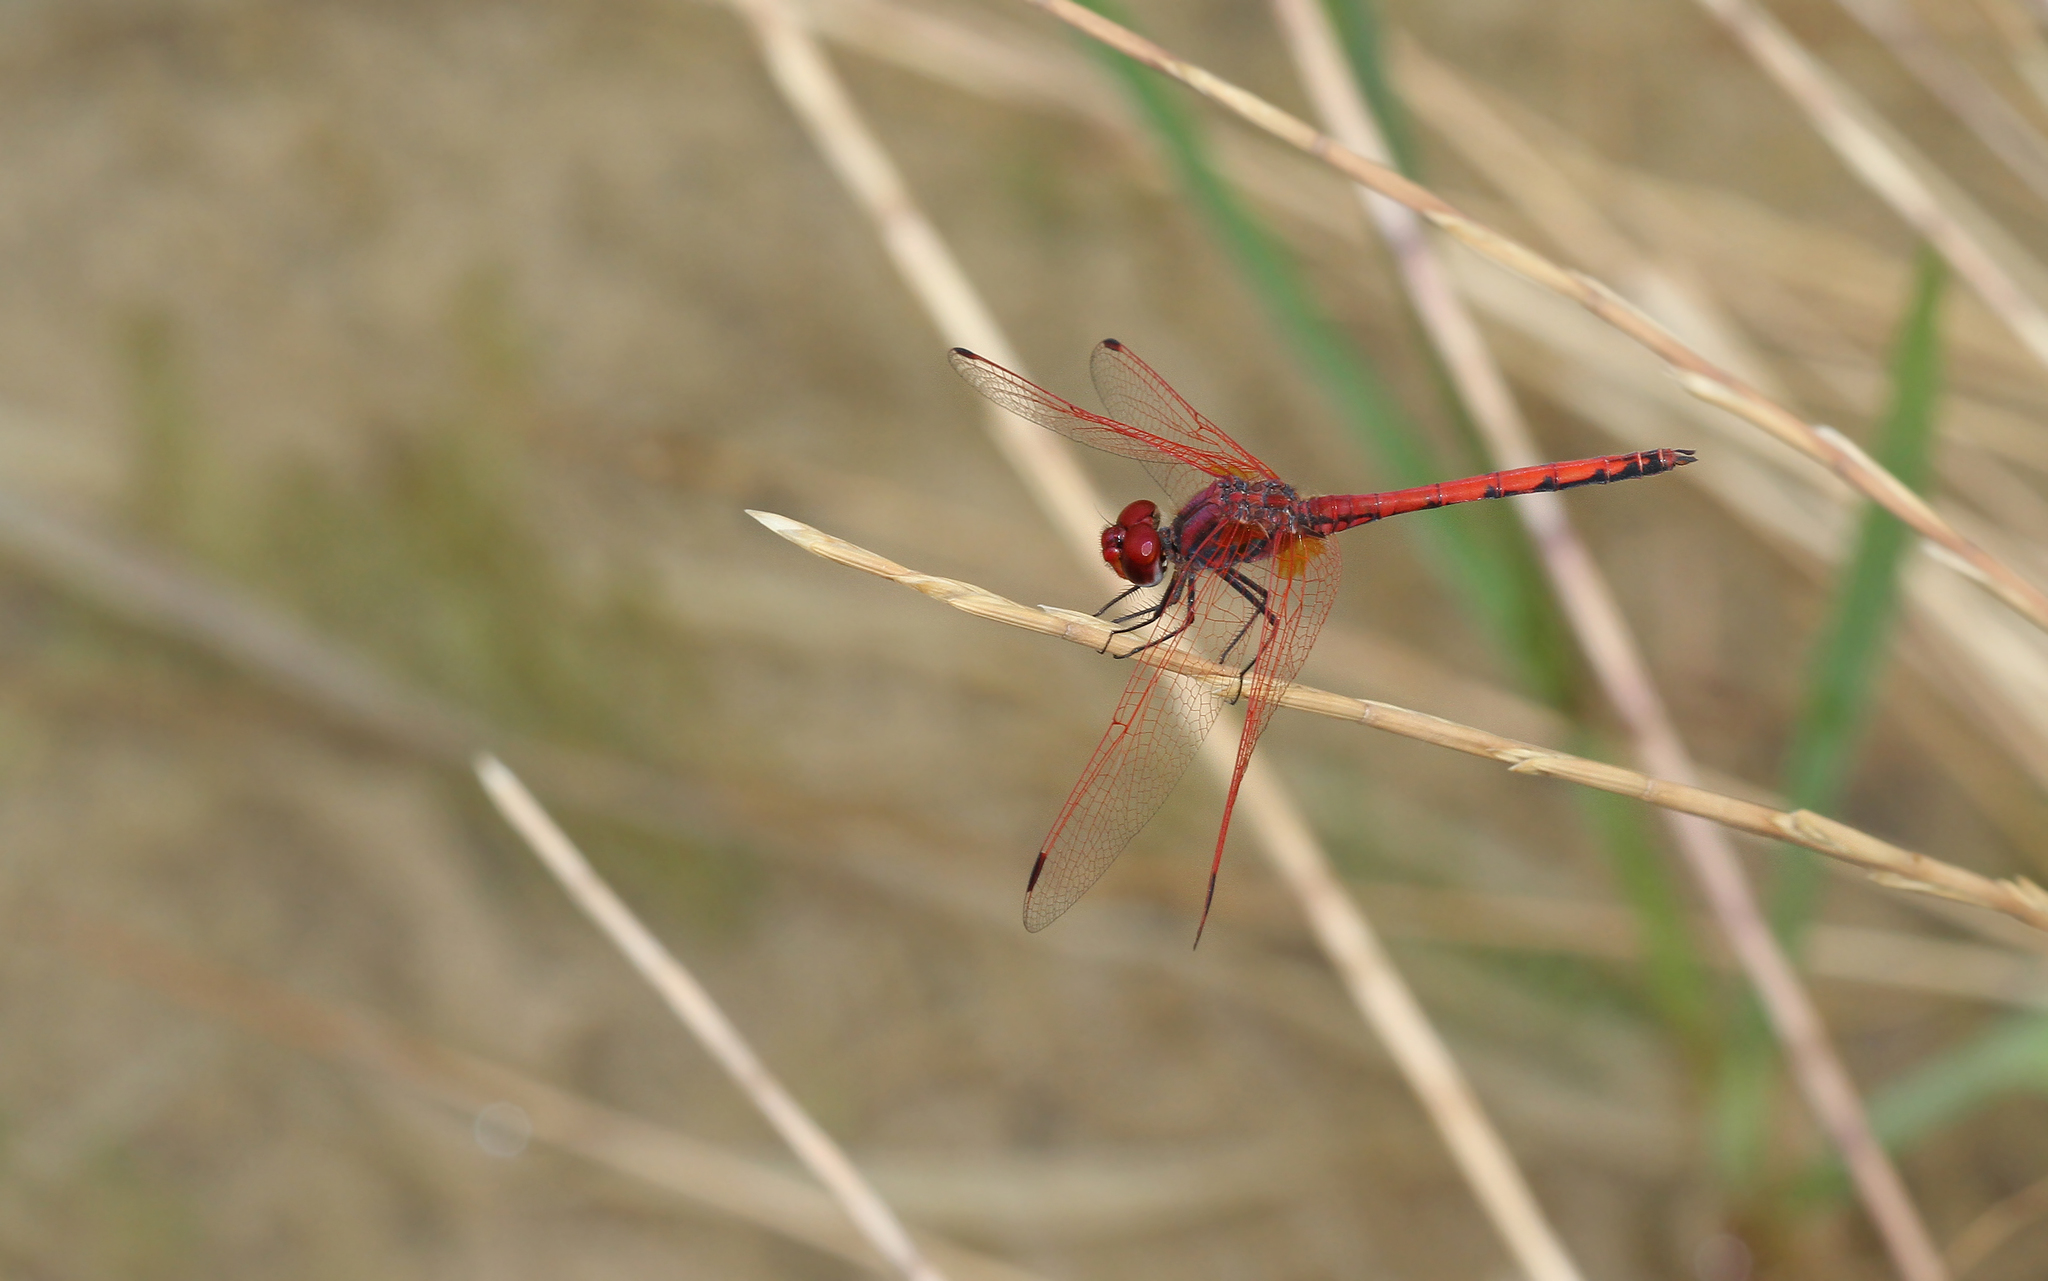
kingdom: Animalia
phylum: Arthropoda
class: Insecta
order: Odonata
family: Libellulidae
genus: Trithemis
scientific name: Trithemis arteriosa
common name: Red-veined dropwing
